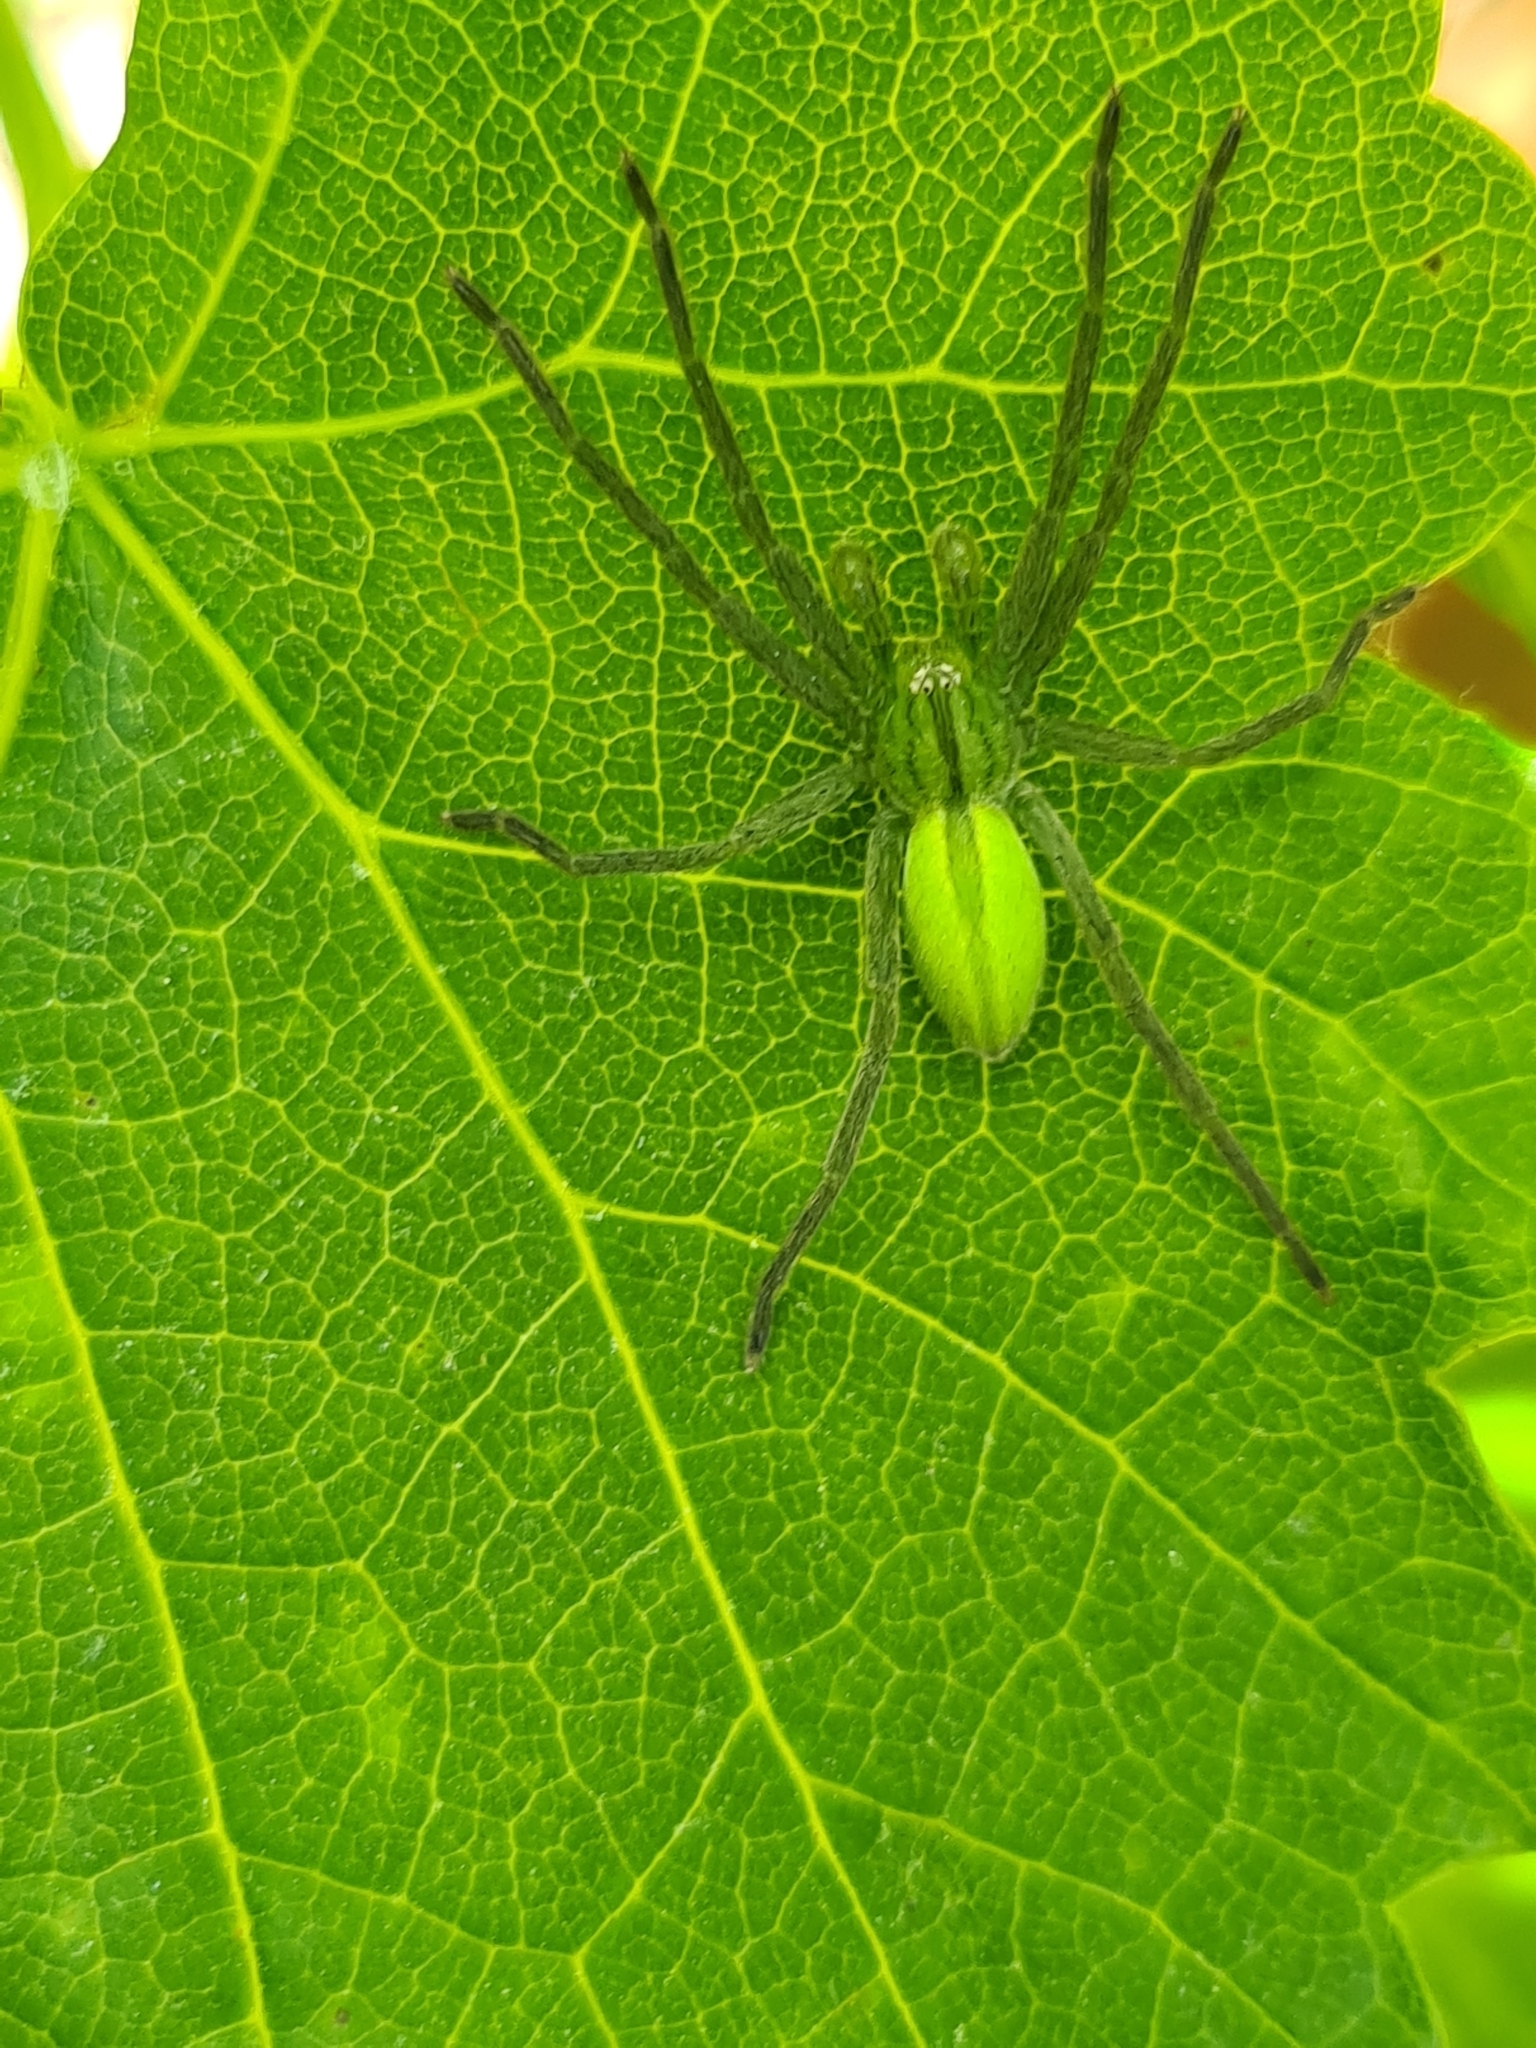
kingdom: Animalia
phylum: Arthropoda
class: Arachnida
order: Araneae
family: Sparassidae
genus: Micrommata
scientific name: Micrommata virescens
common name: Green spider
